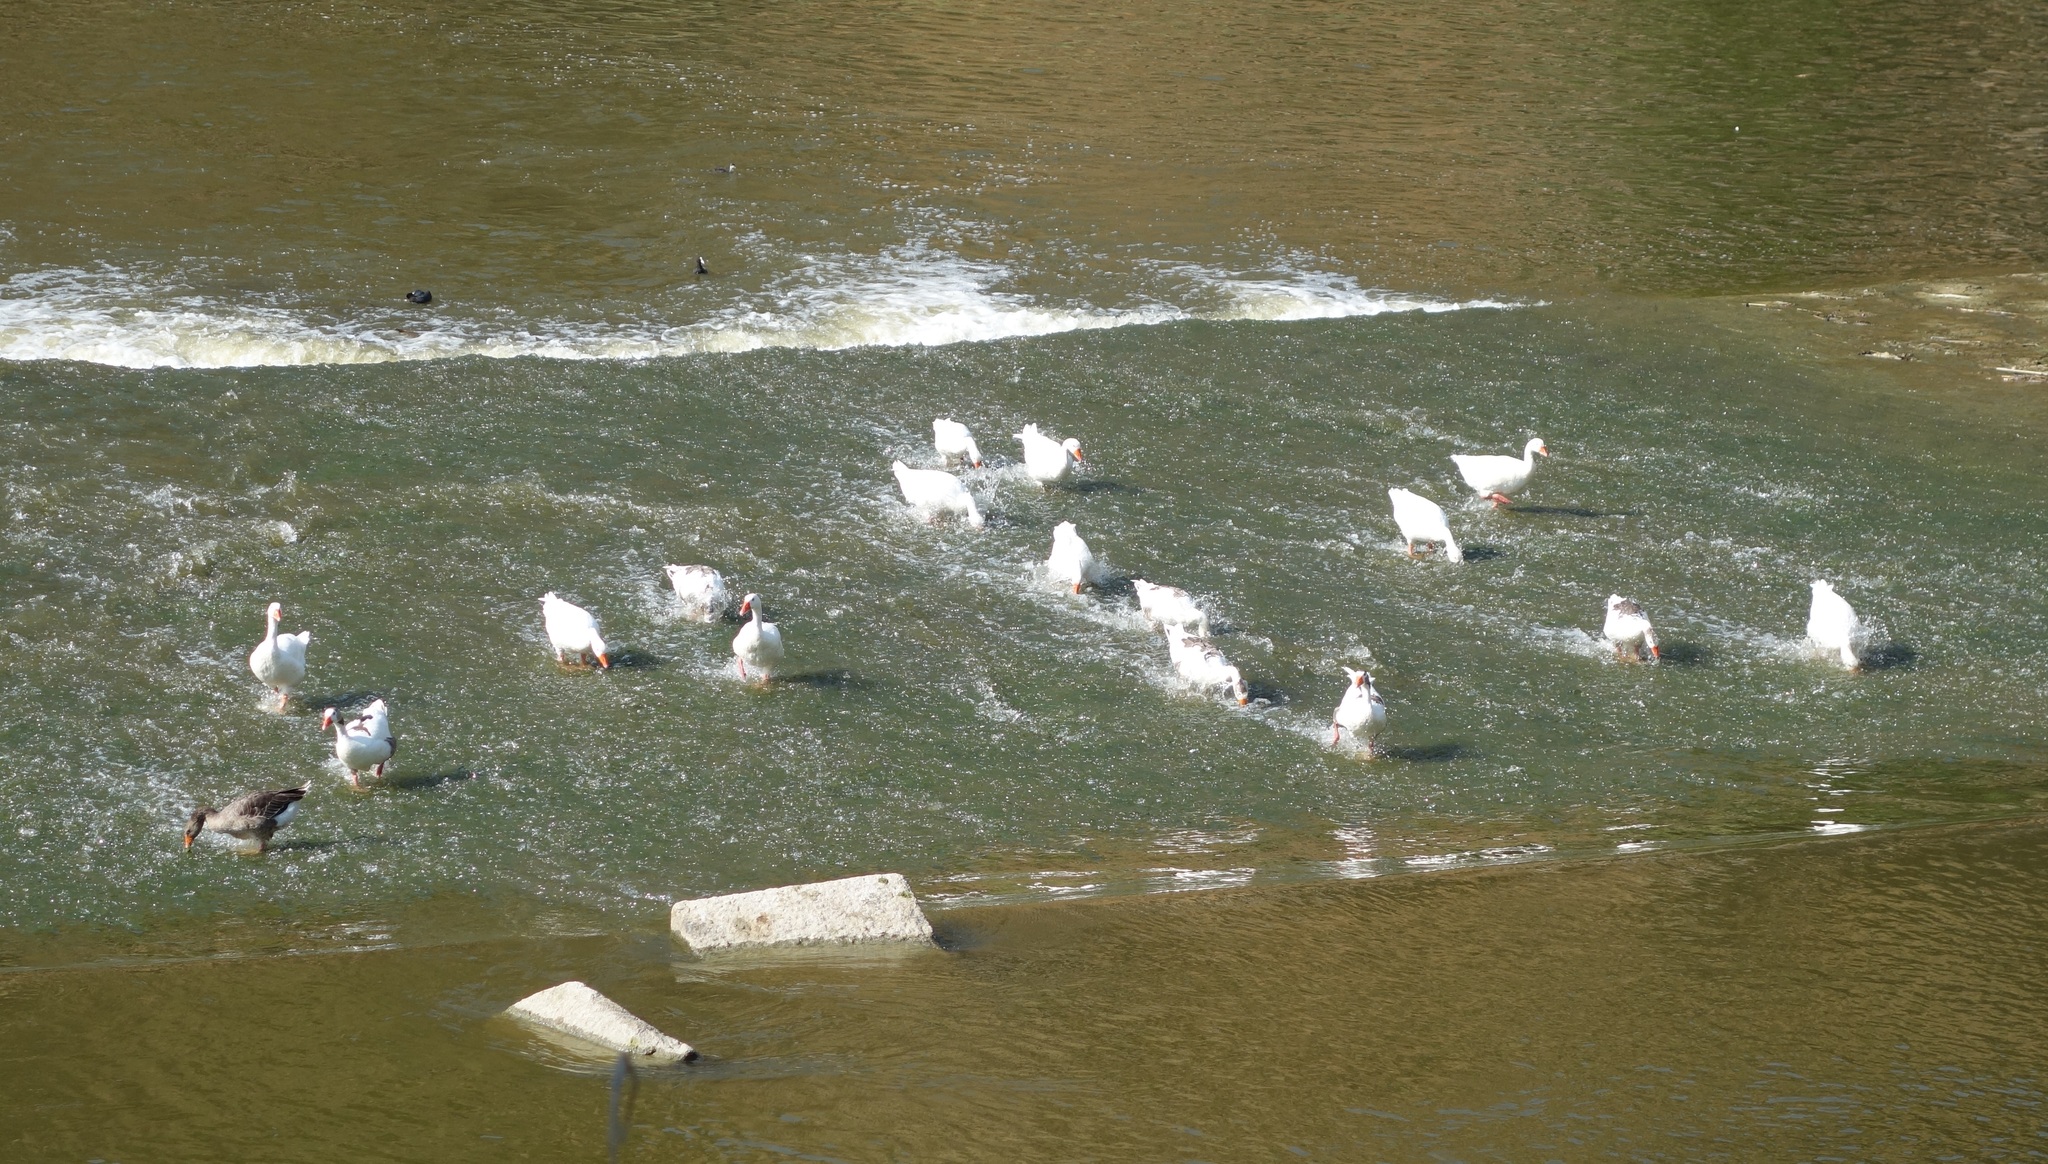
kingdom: Animalia
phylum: Chordata
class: Aves
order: Anseriformes
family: Anatidae
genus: Anser
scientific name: Anser anser
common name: Greylag goose
